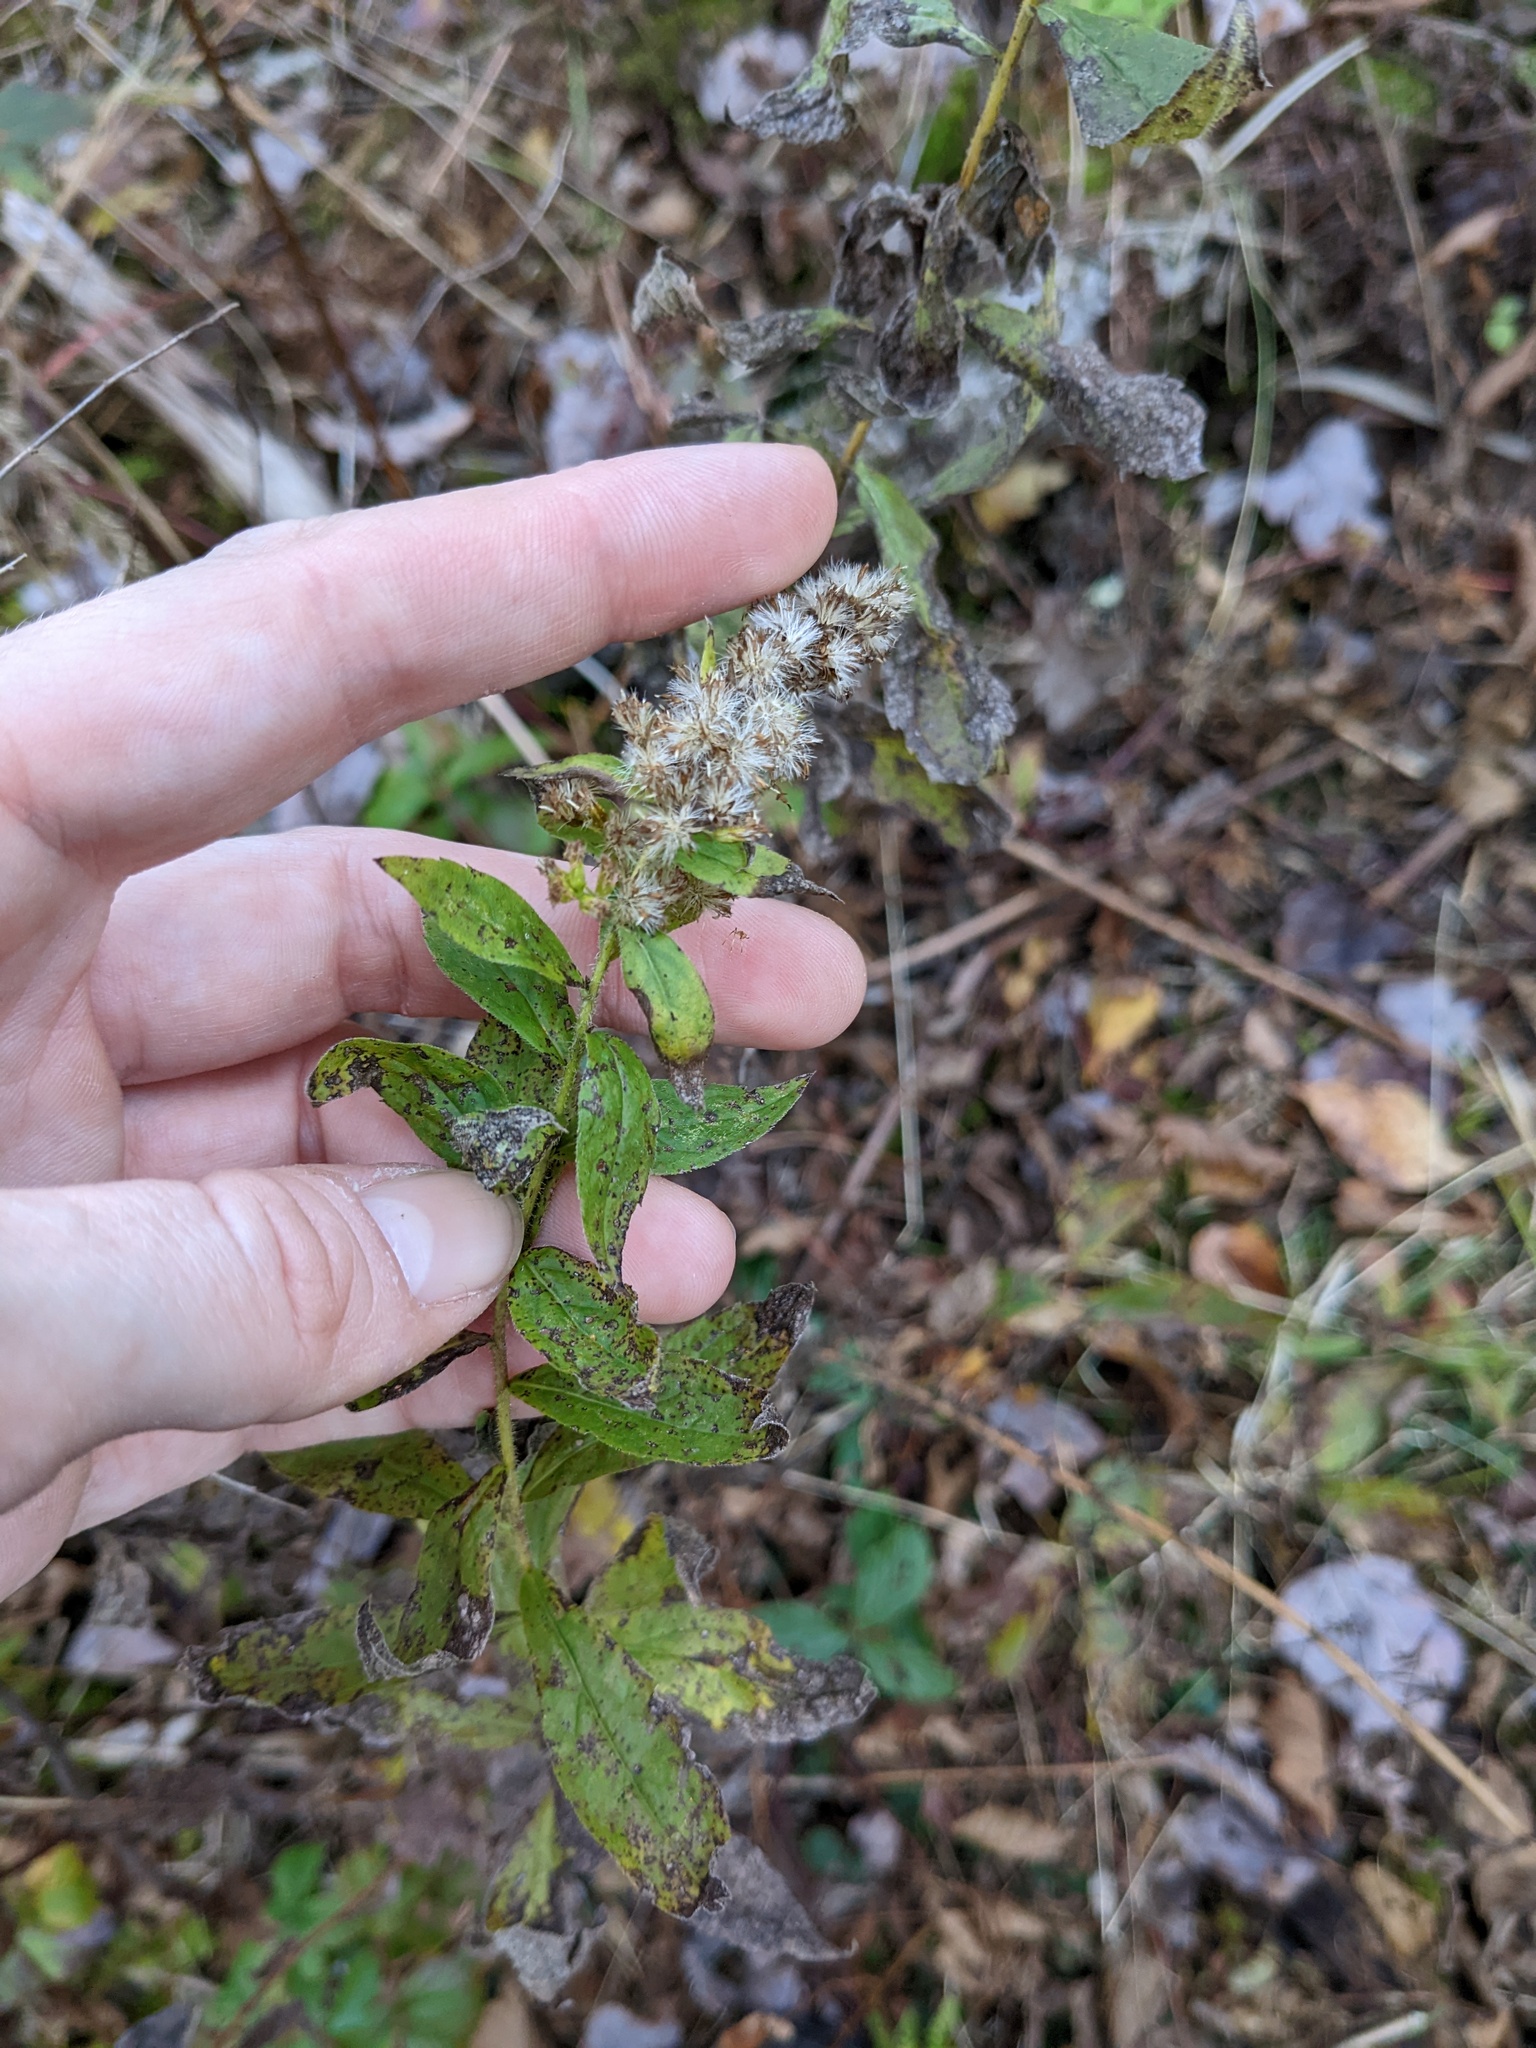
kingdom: Plantae
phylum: Tracheophyta
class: Magnoliopsida
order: Asterales
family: Asteraceae
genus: Solidago
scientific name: Solidago rugosa
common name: Rough-stemmed goldenrod
